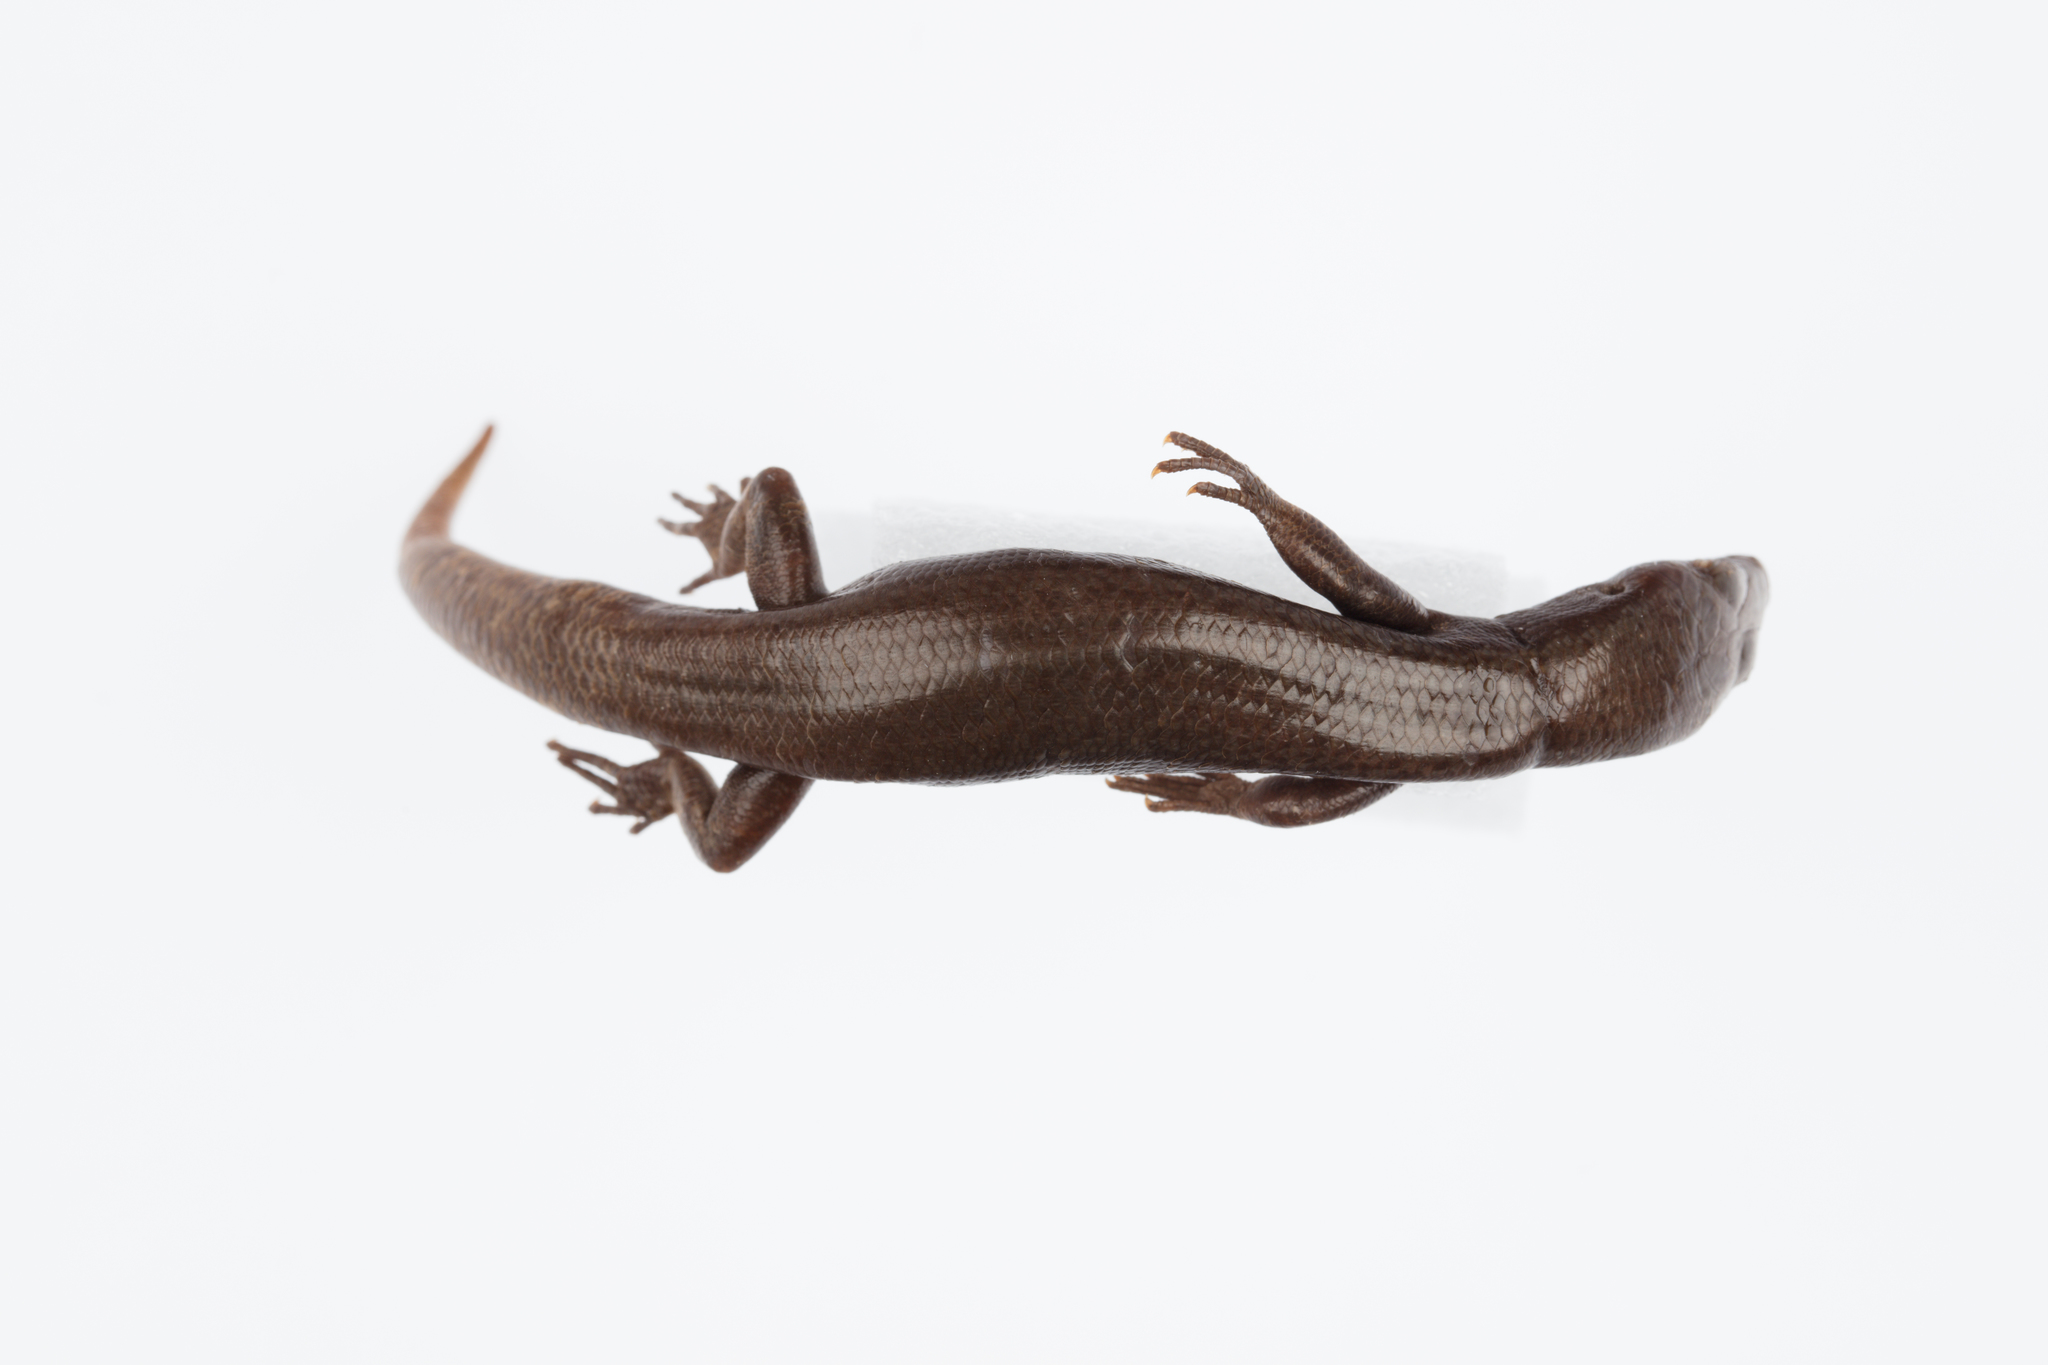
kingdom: Animalia
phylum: Chordata
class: Squamata
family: Scincidae
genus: Oligosoma
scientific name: Oligosoma smithi
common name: Shore skink
